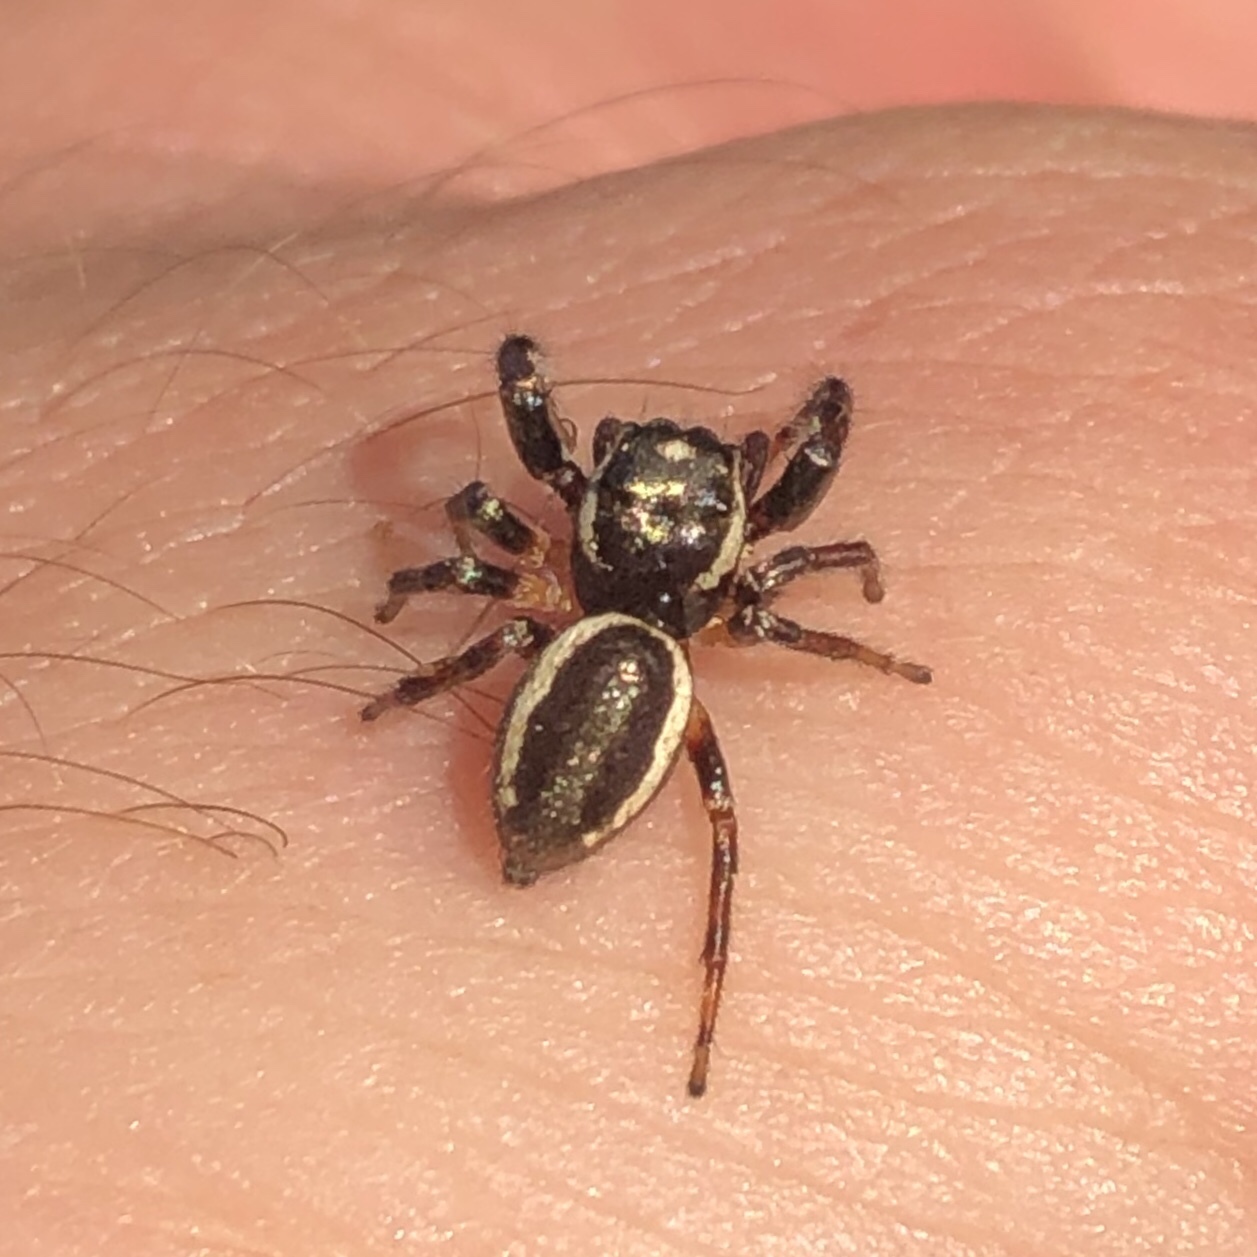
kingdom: Animalia
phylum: Arthropoda
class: Arachnida
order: Araneae
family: Salticidae
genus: Eris
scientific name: Eris militaris
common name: Bronze jumper
